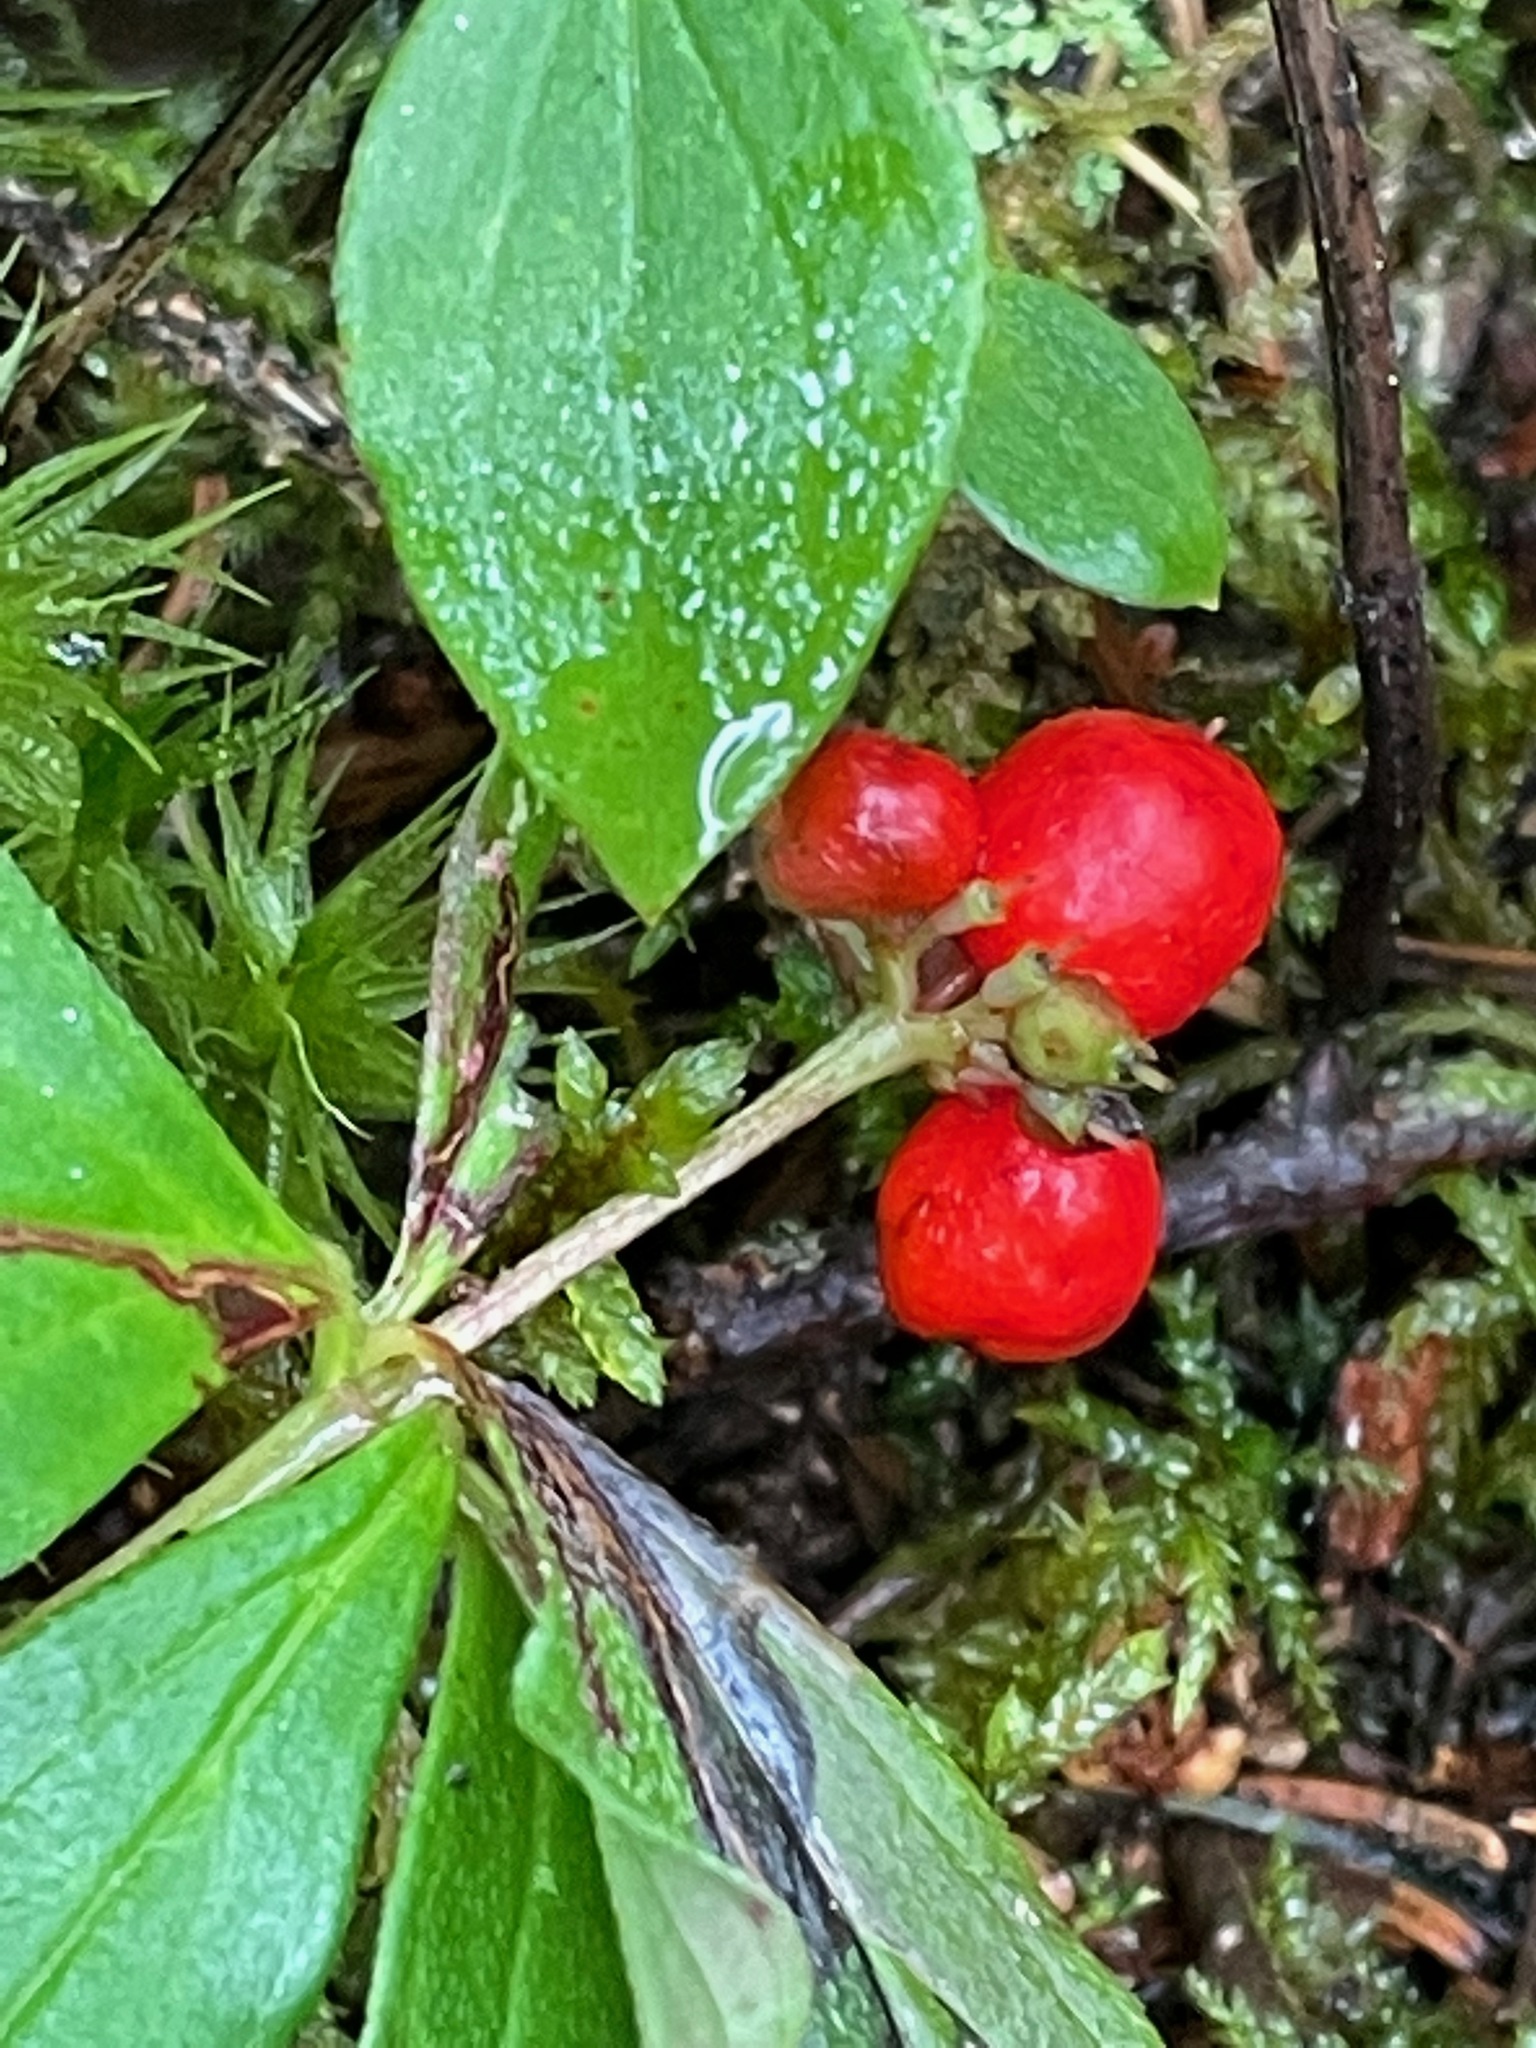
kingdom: Plantae
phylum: Tracheophyta
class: Magnoliopsida
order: Cornales
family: Cornaceae
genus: Cornus
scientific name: Cornus canadensis
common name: Creeping dogwood
